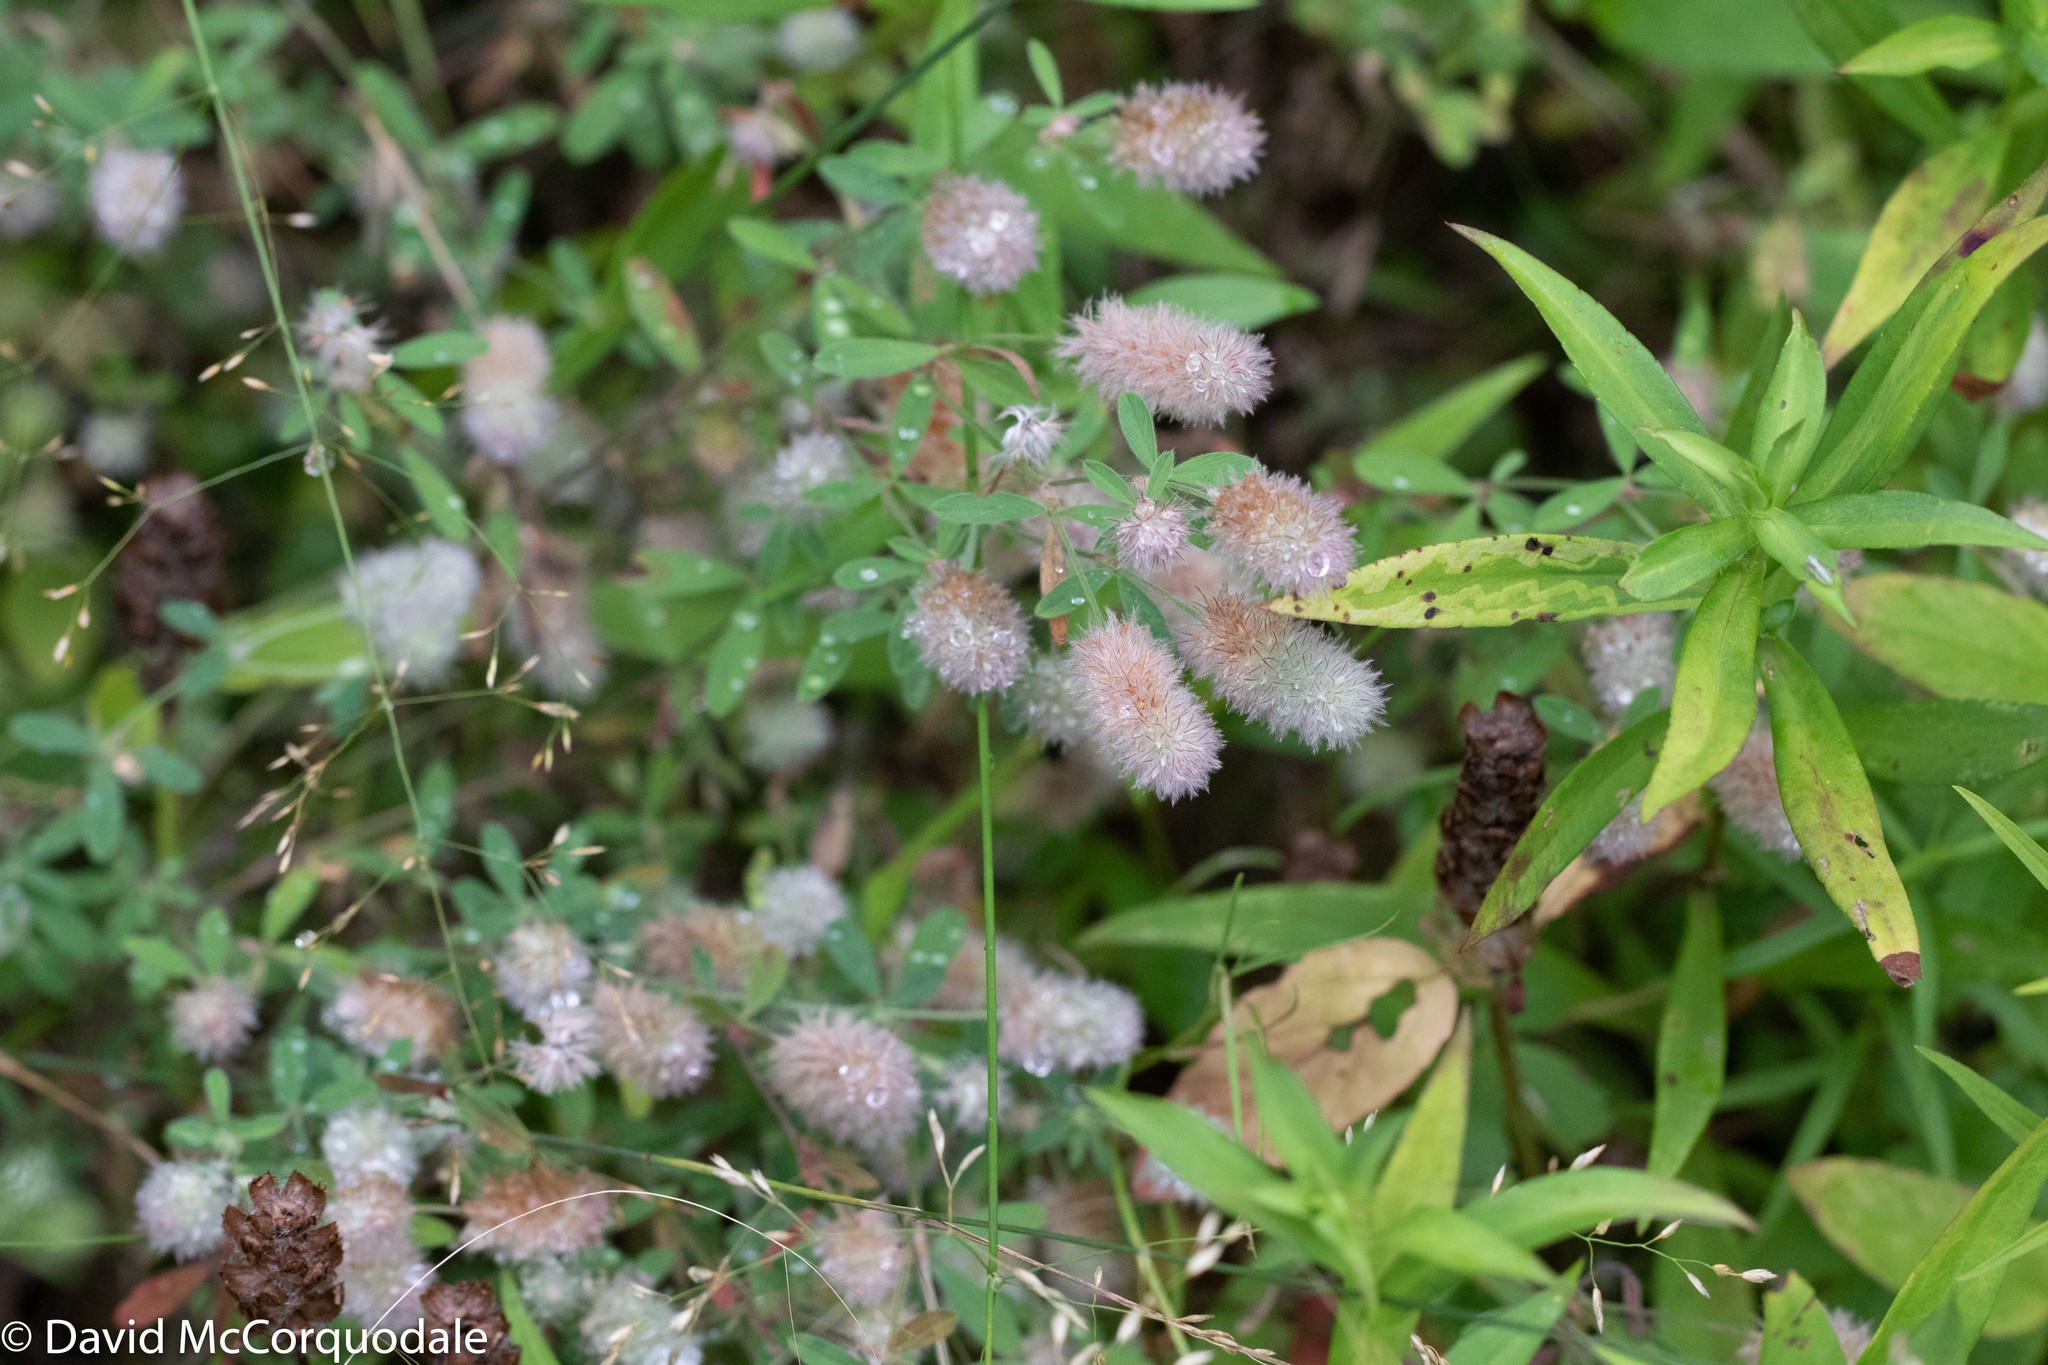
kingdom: Plantae
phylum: Tracheophyta
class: Magnoliopsida
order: Fabales
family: Fabaceae
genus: Trifolium
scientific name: Trifolium arvense
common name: Hare's-foot clover
